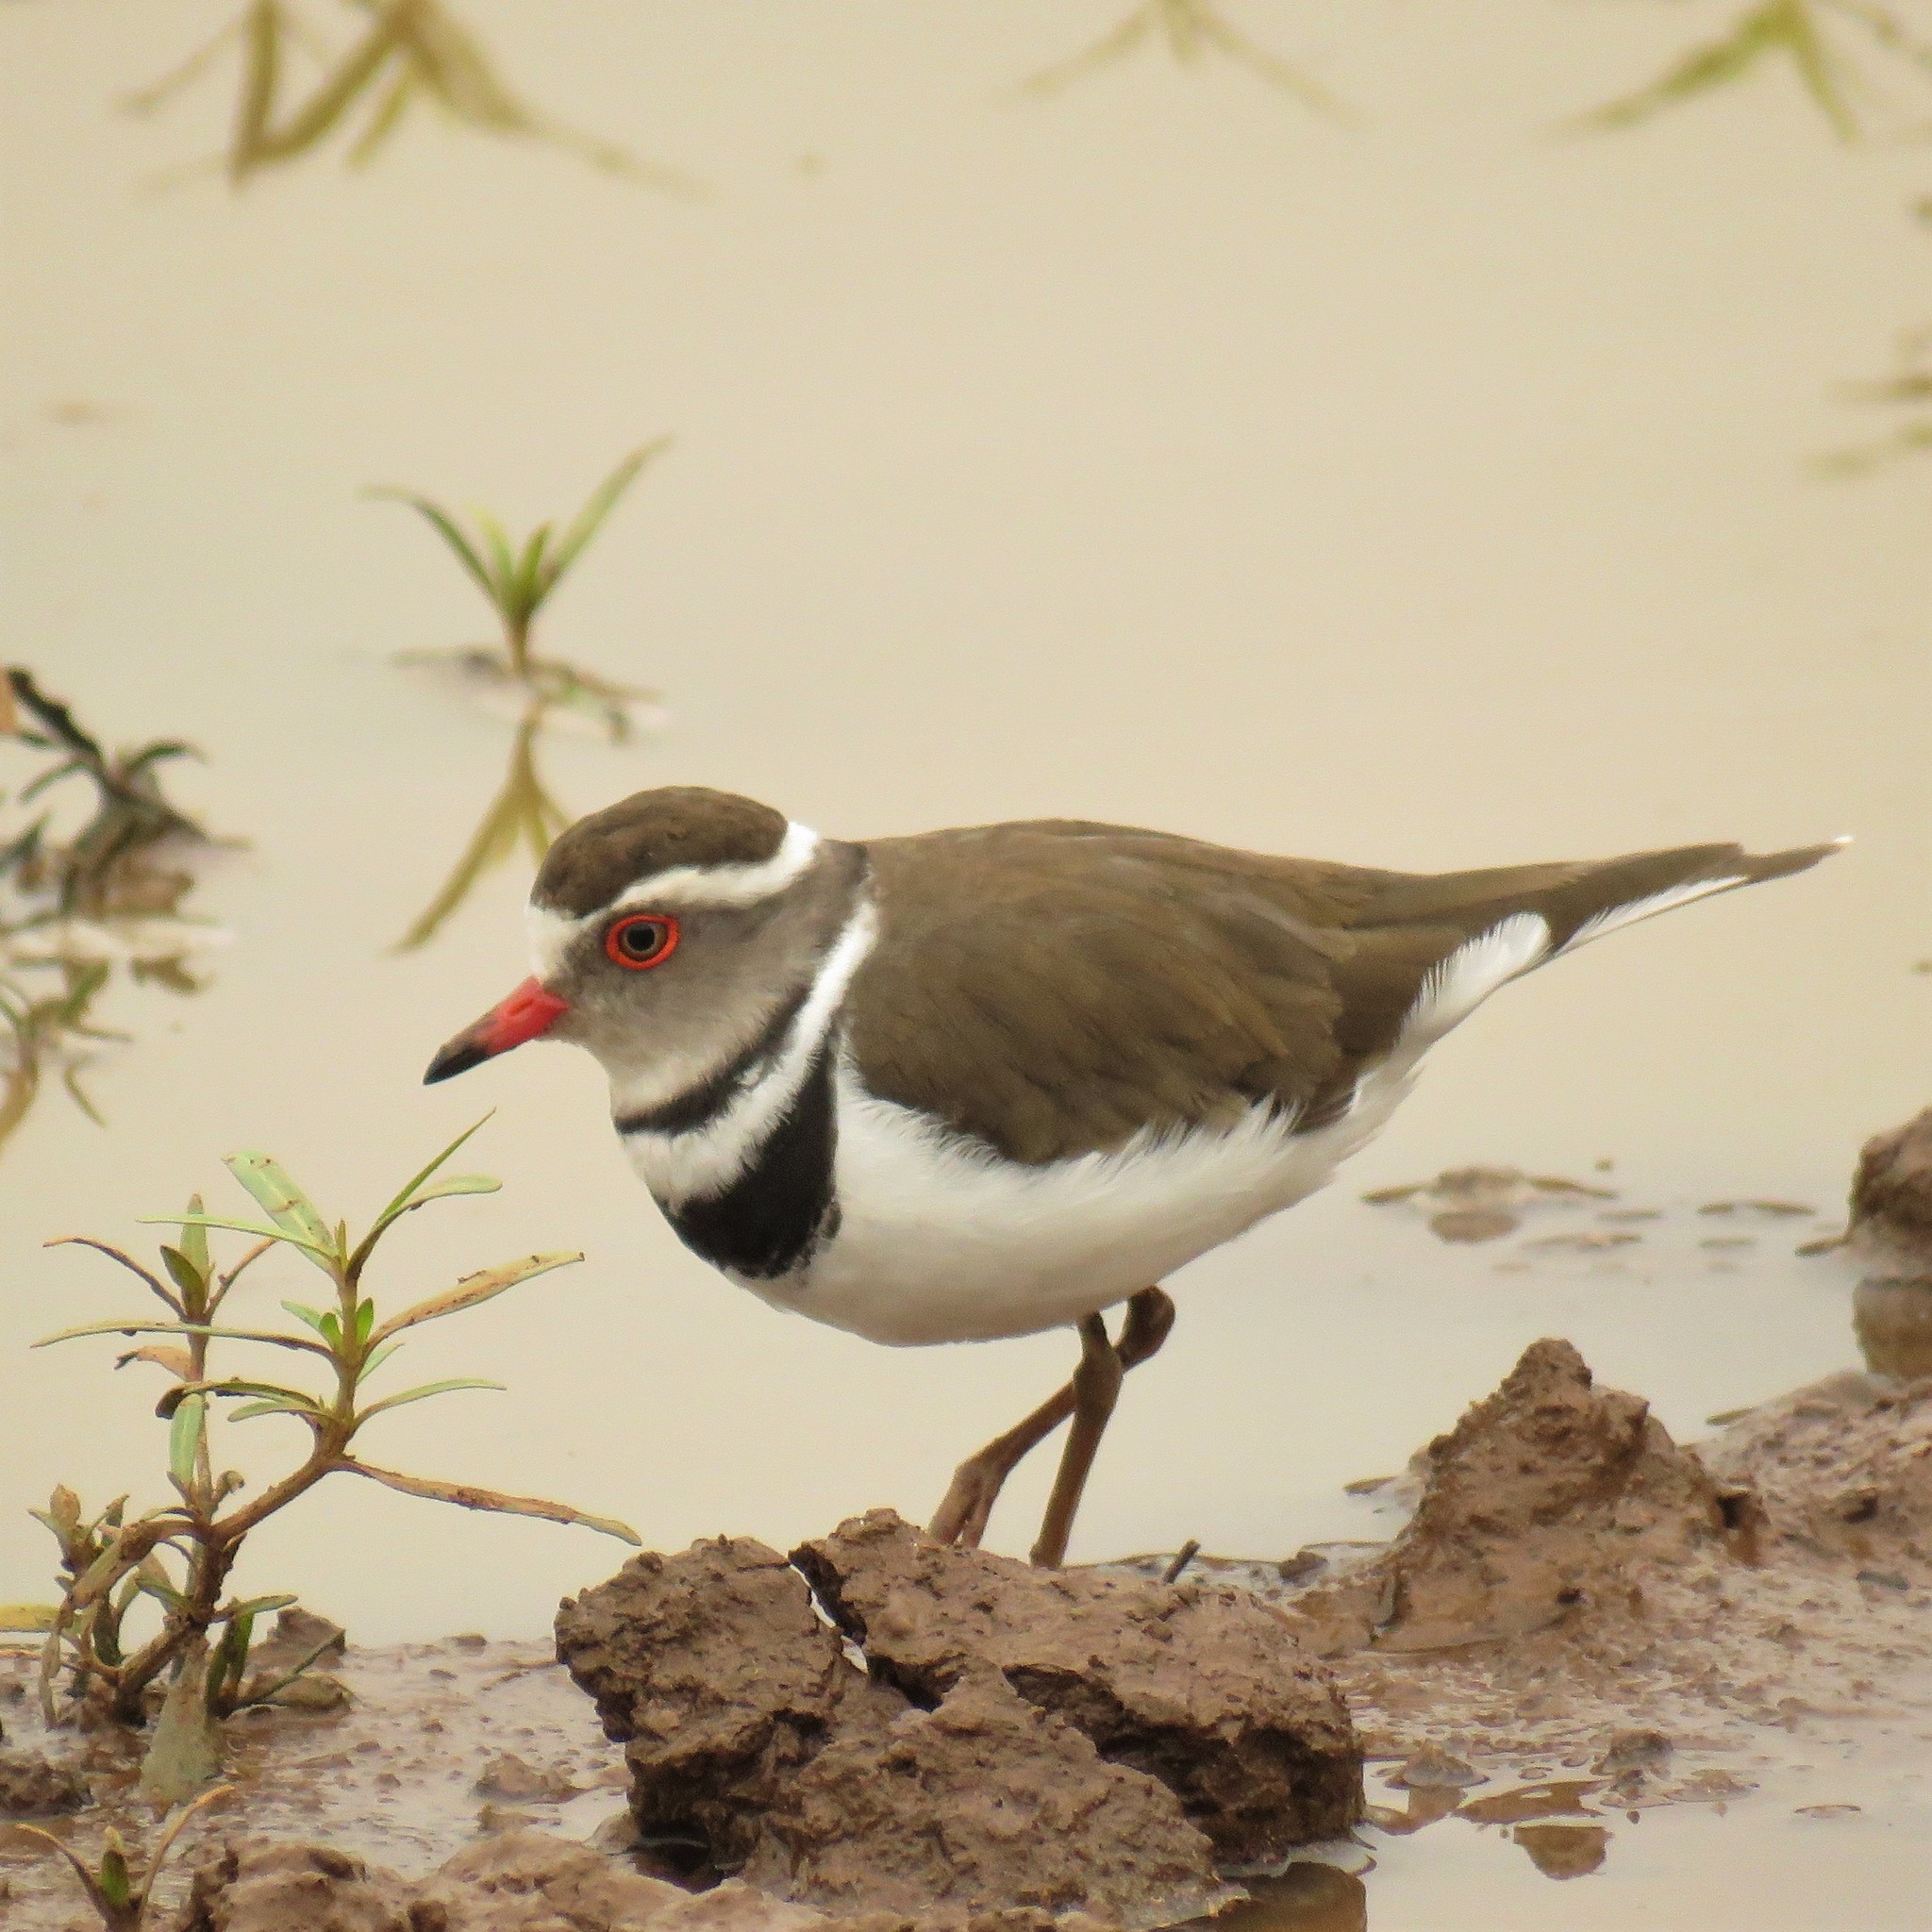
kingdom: Animalia
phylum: Chordata
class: Aves
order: Charadriiformes
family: Charadriidae
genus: Charadrius
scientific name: Charadrius tricollaris
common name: Three-banded plover
